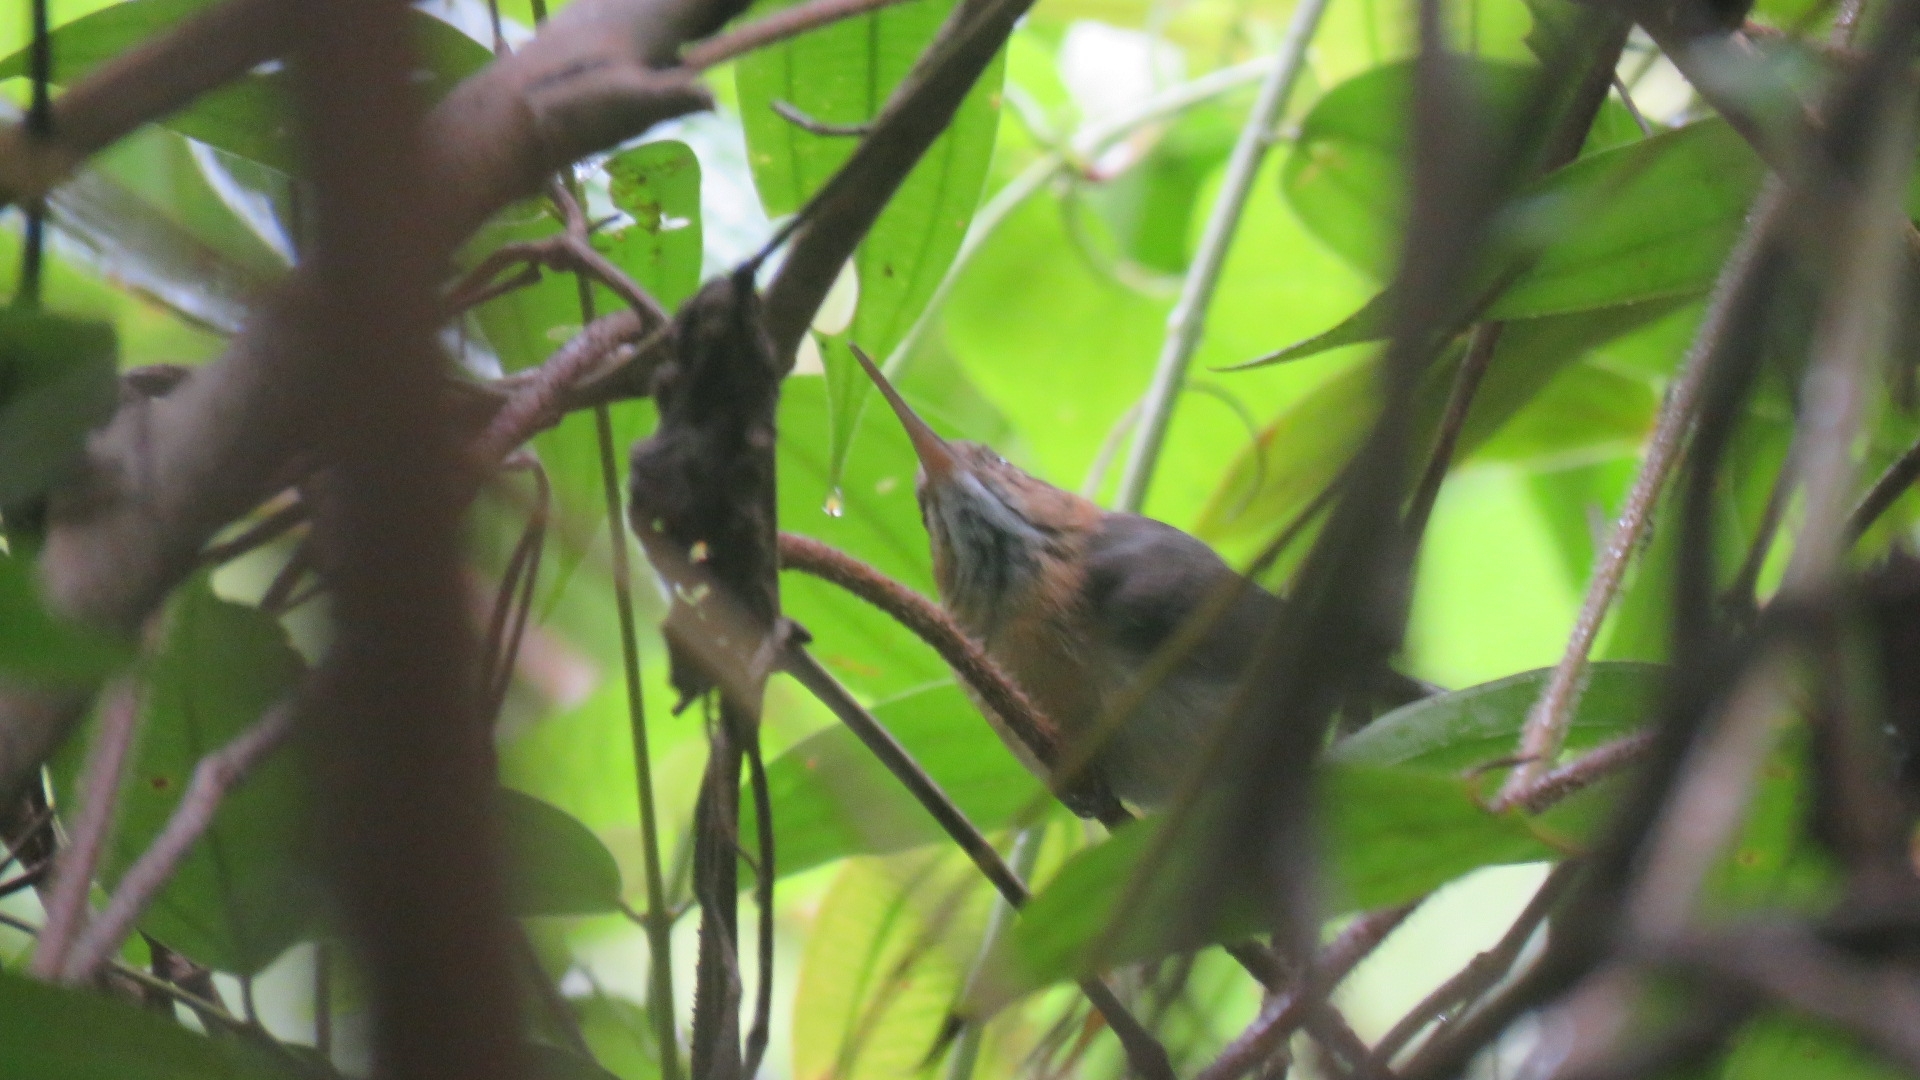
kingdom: Animalia
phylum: Chordata
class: Aves
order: Passeriformes
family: Polioptilidae
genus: Ramphocaenus
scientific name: Ramphocaenus melanurus
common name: Long-billed gnatwren
